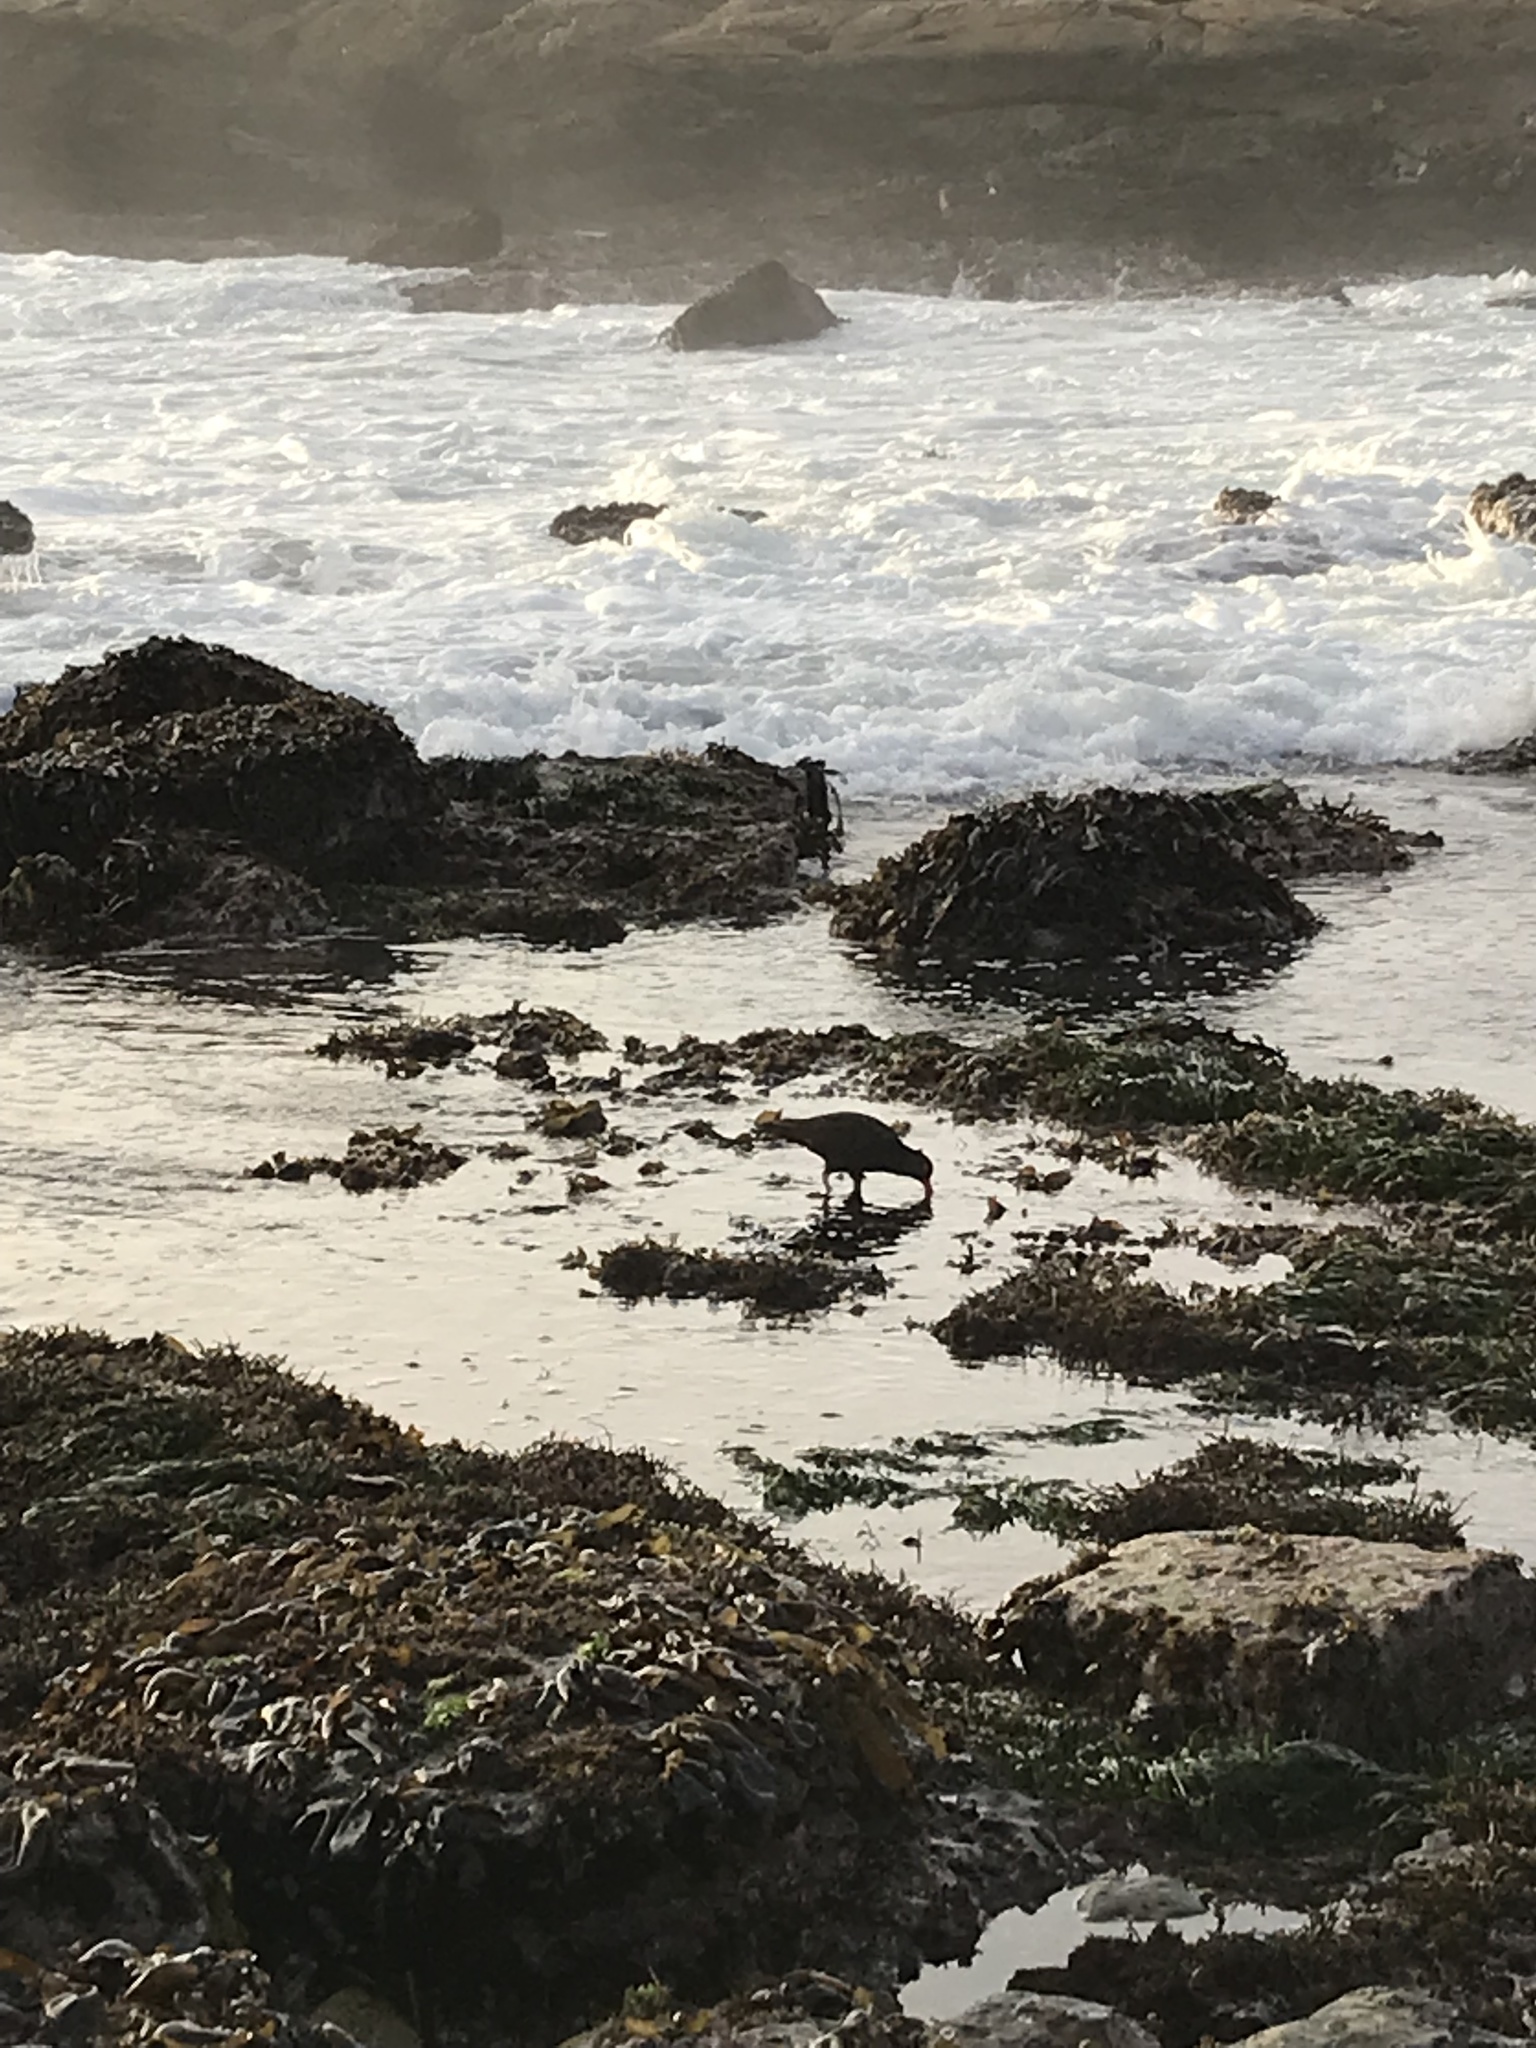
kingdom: Animalia
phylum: Chordata
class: Aves
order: Charadriiformes
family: Haematopodidae
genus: Haematopus
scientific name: Haematopus bachmani
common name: Black oystercatcher
